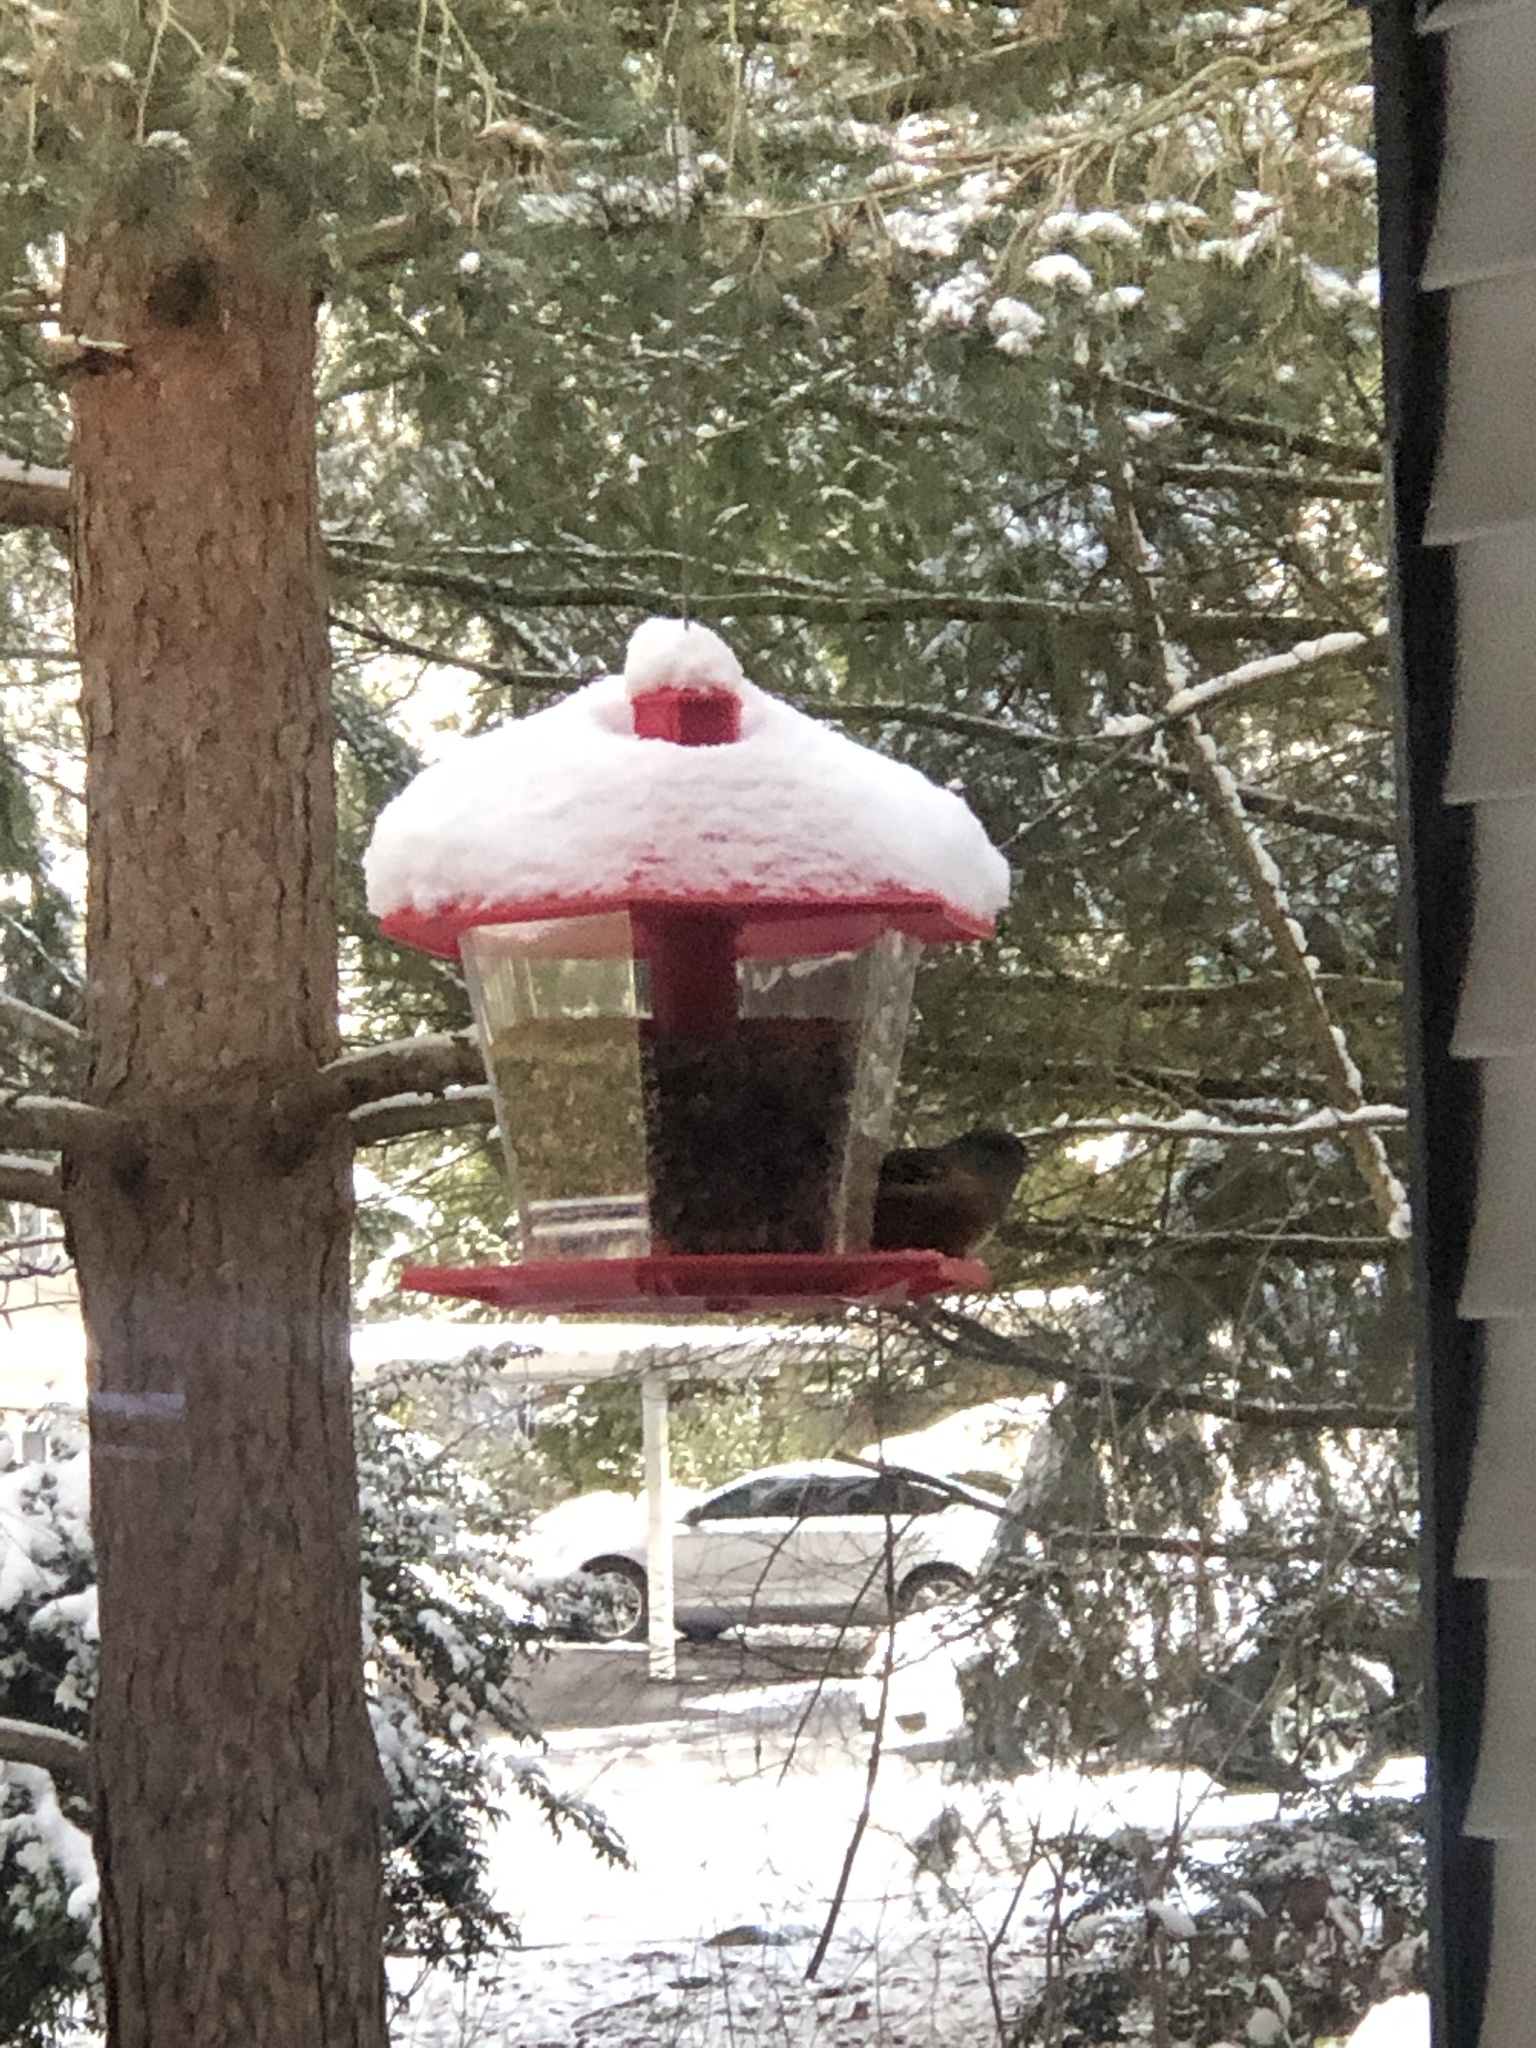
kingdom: Animalia
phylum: Chordata
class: Aves
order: Passeriformes
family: Passerellidae
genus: Pipilo
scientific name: Pipilo maculatus
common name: Spotted towhee
